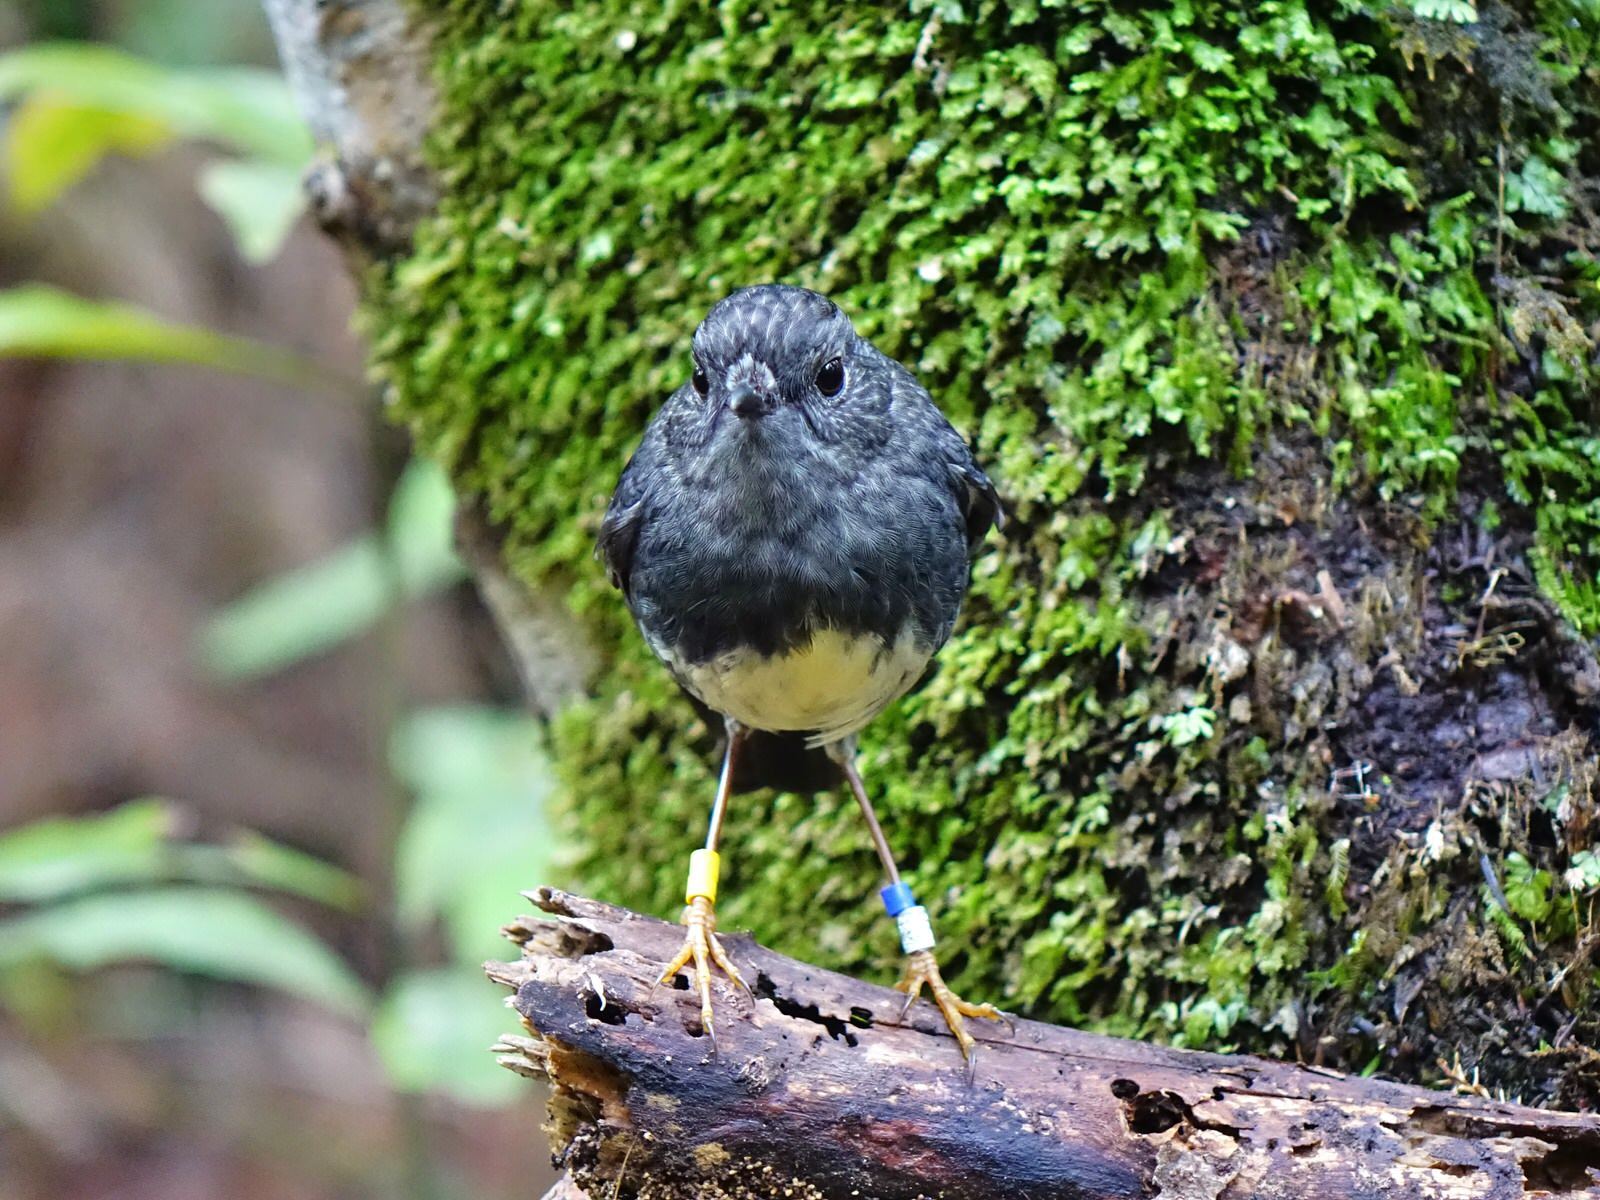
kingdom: Animalia
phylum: Chordata
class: Aves
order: Passeriformes
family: Petroicidae
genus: Petroica
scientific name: Petroica australis
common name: New zealand robin
